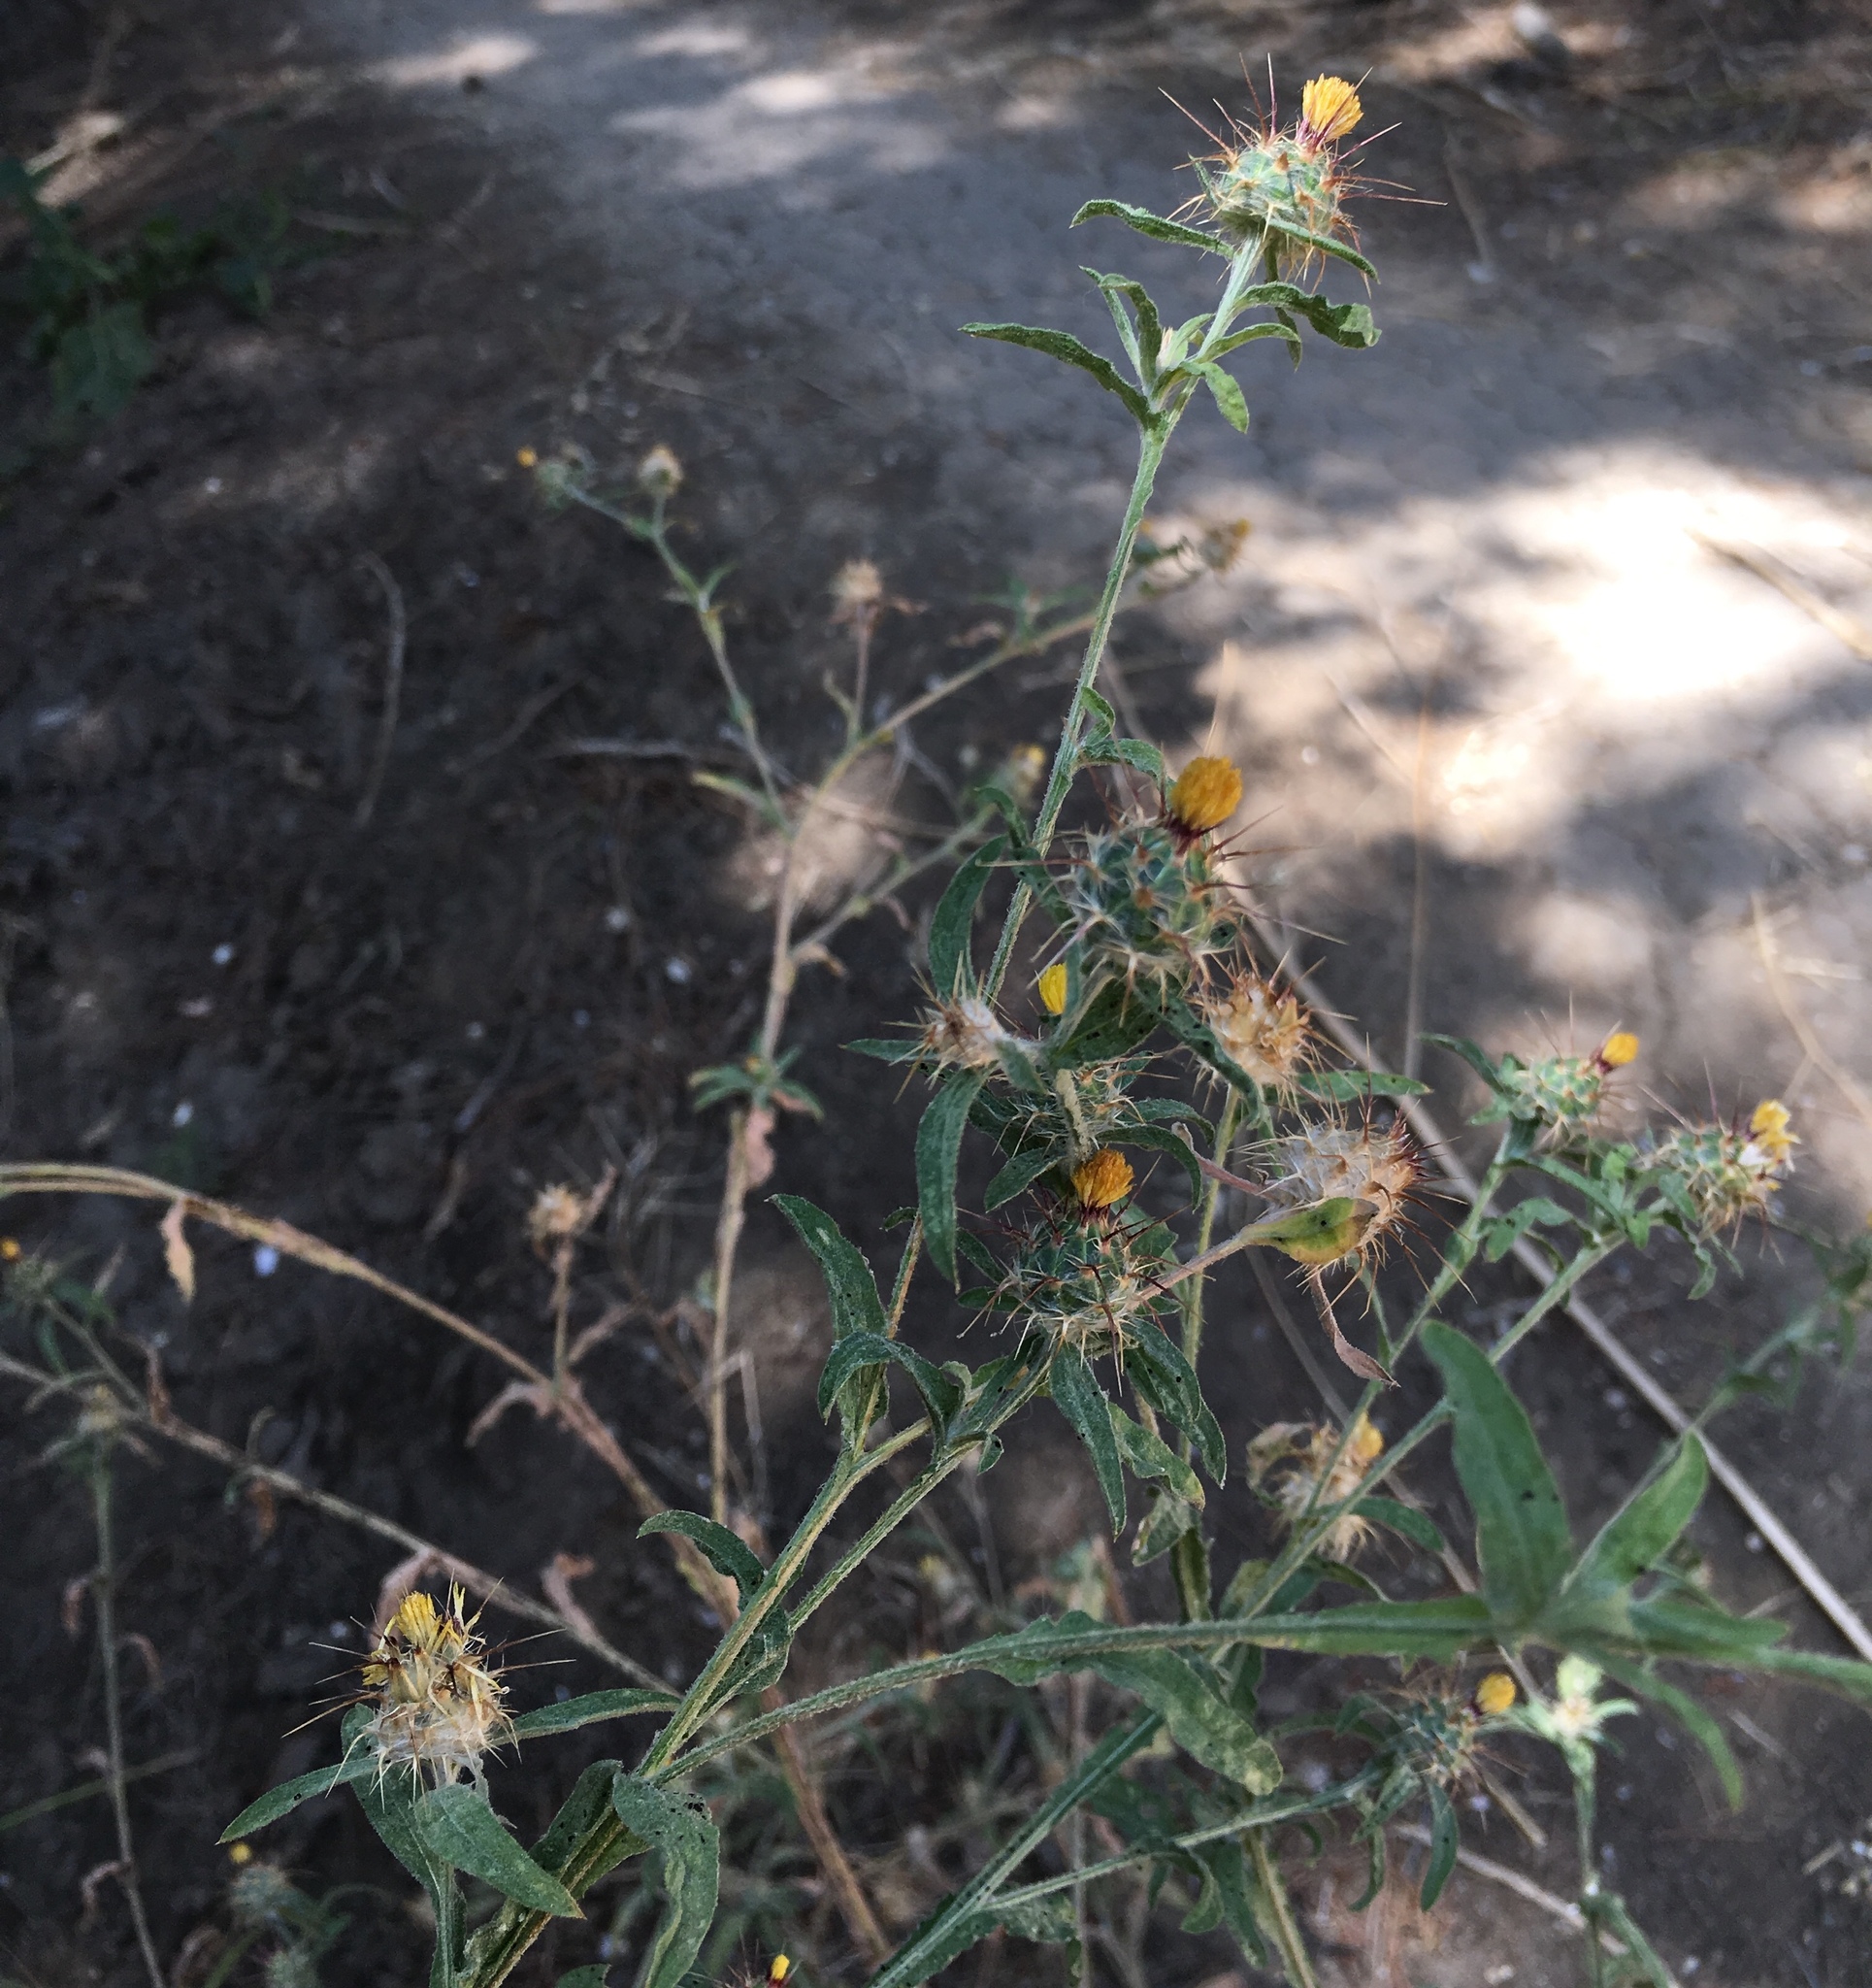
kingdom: Plantae
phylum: Tracheophyta
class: Magnoliopsida
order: Asterales
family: Asteraceae
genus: Centaurea
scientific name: Centaurea melitensis
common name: Maltese star-thistle
